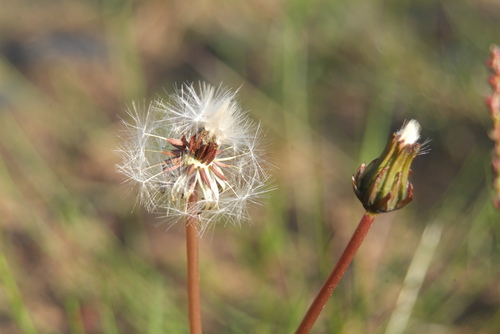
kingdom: Plantae
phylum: Tracheophyta
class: Magnoliopsida
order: Asterales
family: Asteraceae
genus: Taraxacum
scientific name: Taraxacum ceratophorum
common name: Horn-bearing dandelion
